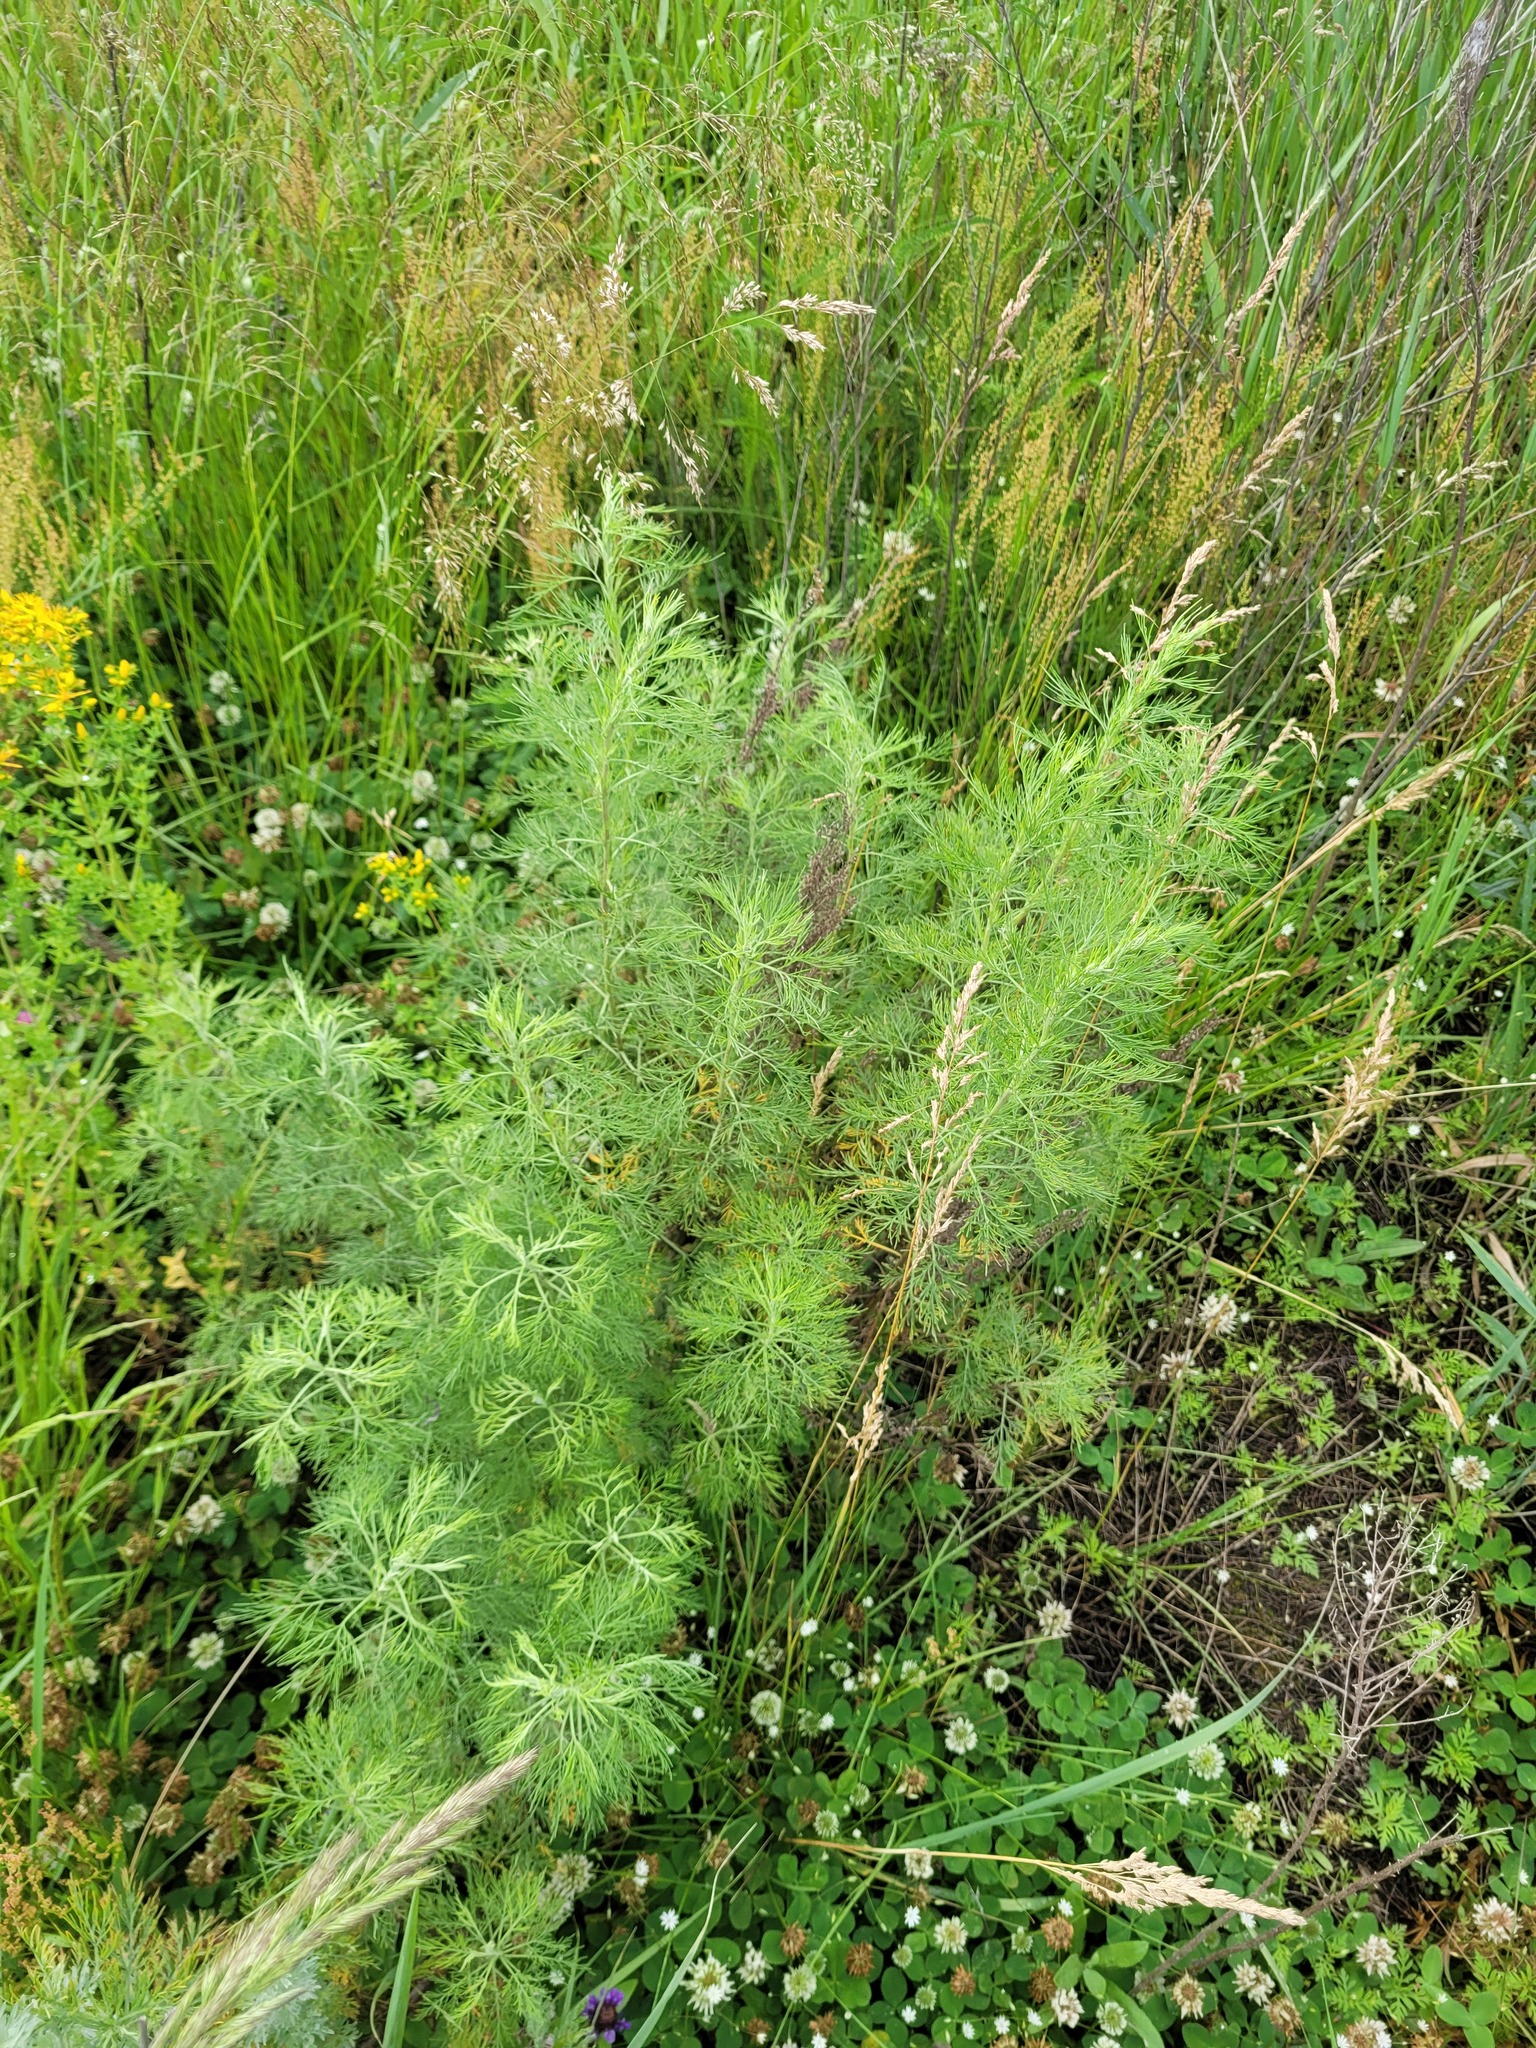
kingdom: Plantae
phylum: Tracheophyta
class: Magnoliopsida
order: Asterales
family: Asteraceae
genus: Artemisia
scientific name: Artemisia abrotanum
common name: Southernwood
